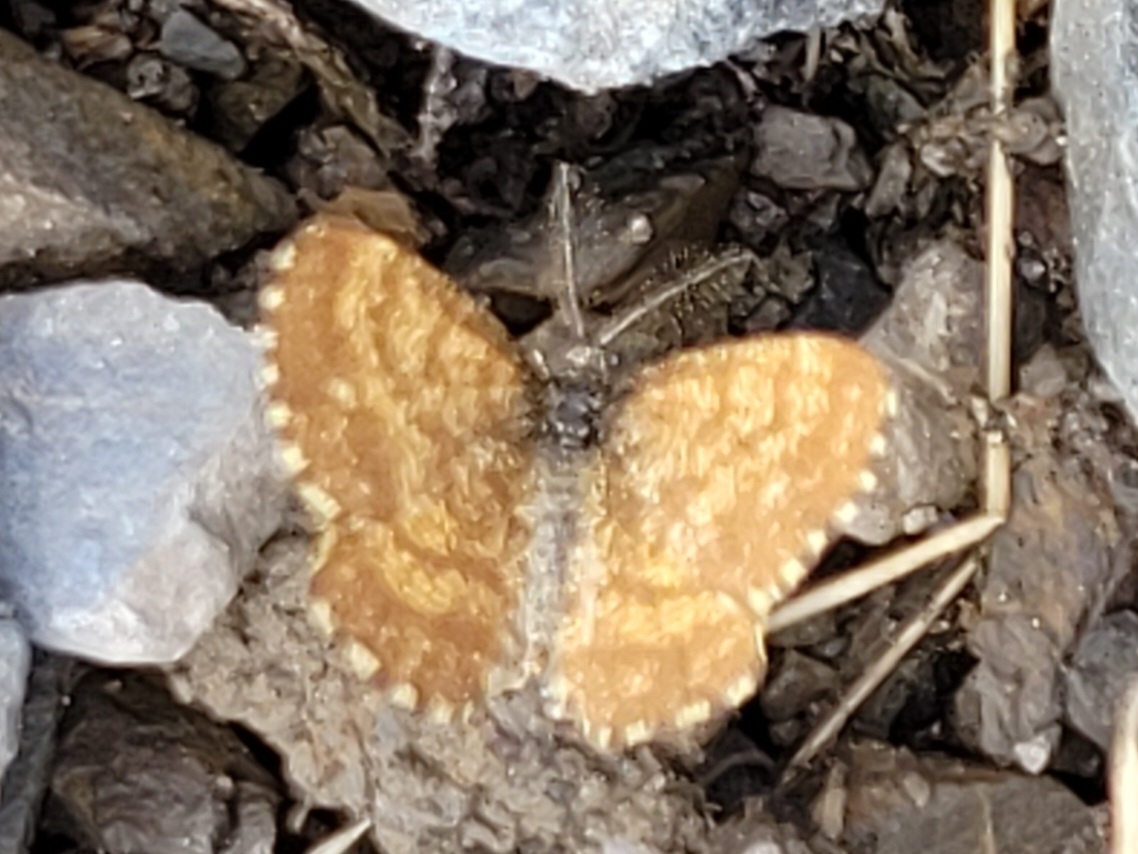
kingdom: Animalia
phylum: Arthropoda
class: Insecta
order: Lepidoptera
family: Geometridae
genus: Ematurga
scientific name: Ematurga atomaria
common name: Common heath
